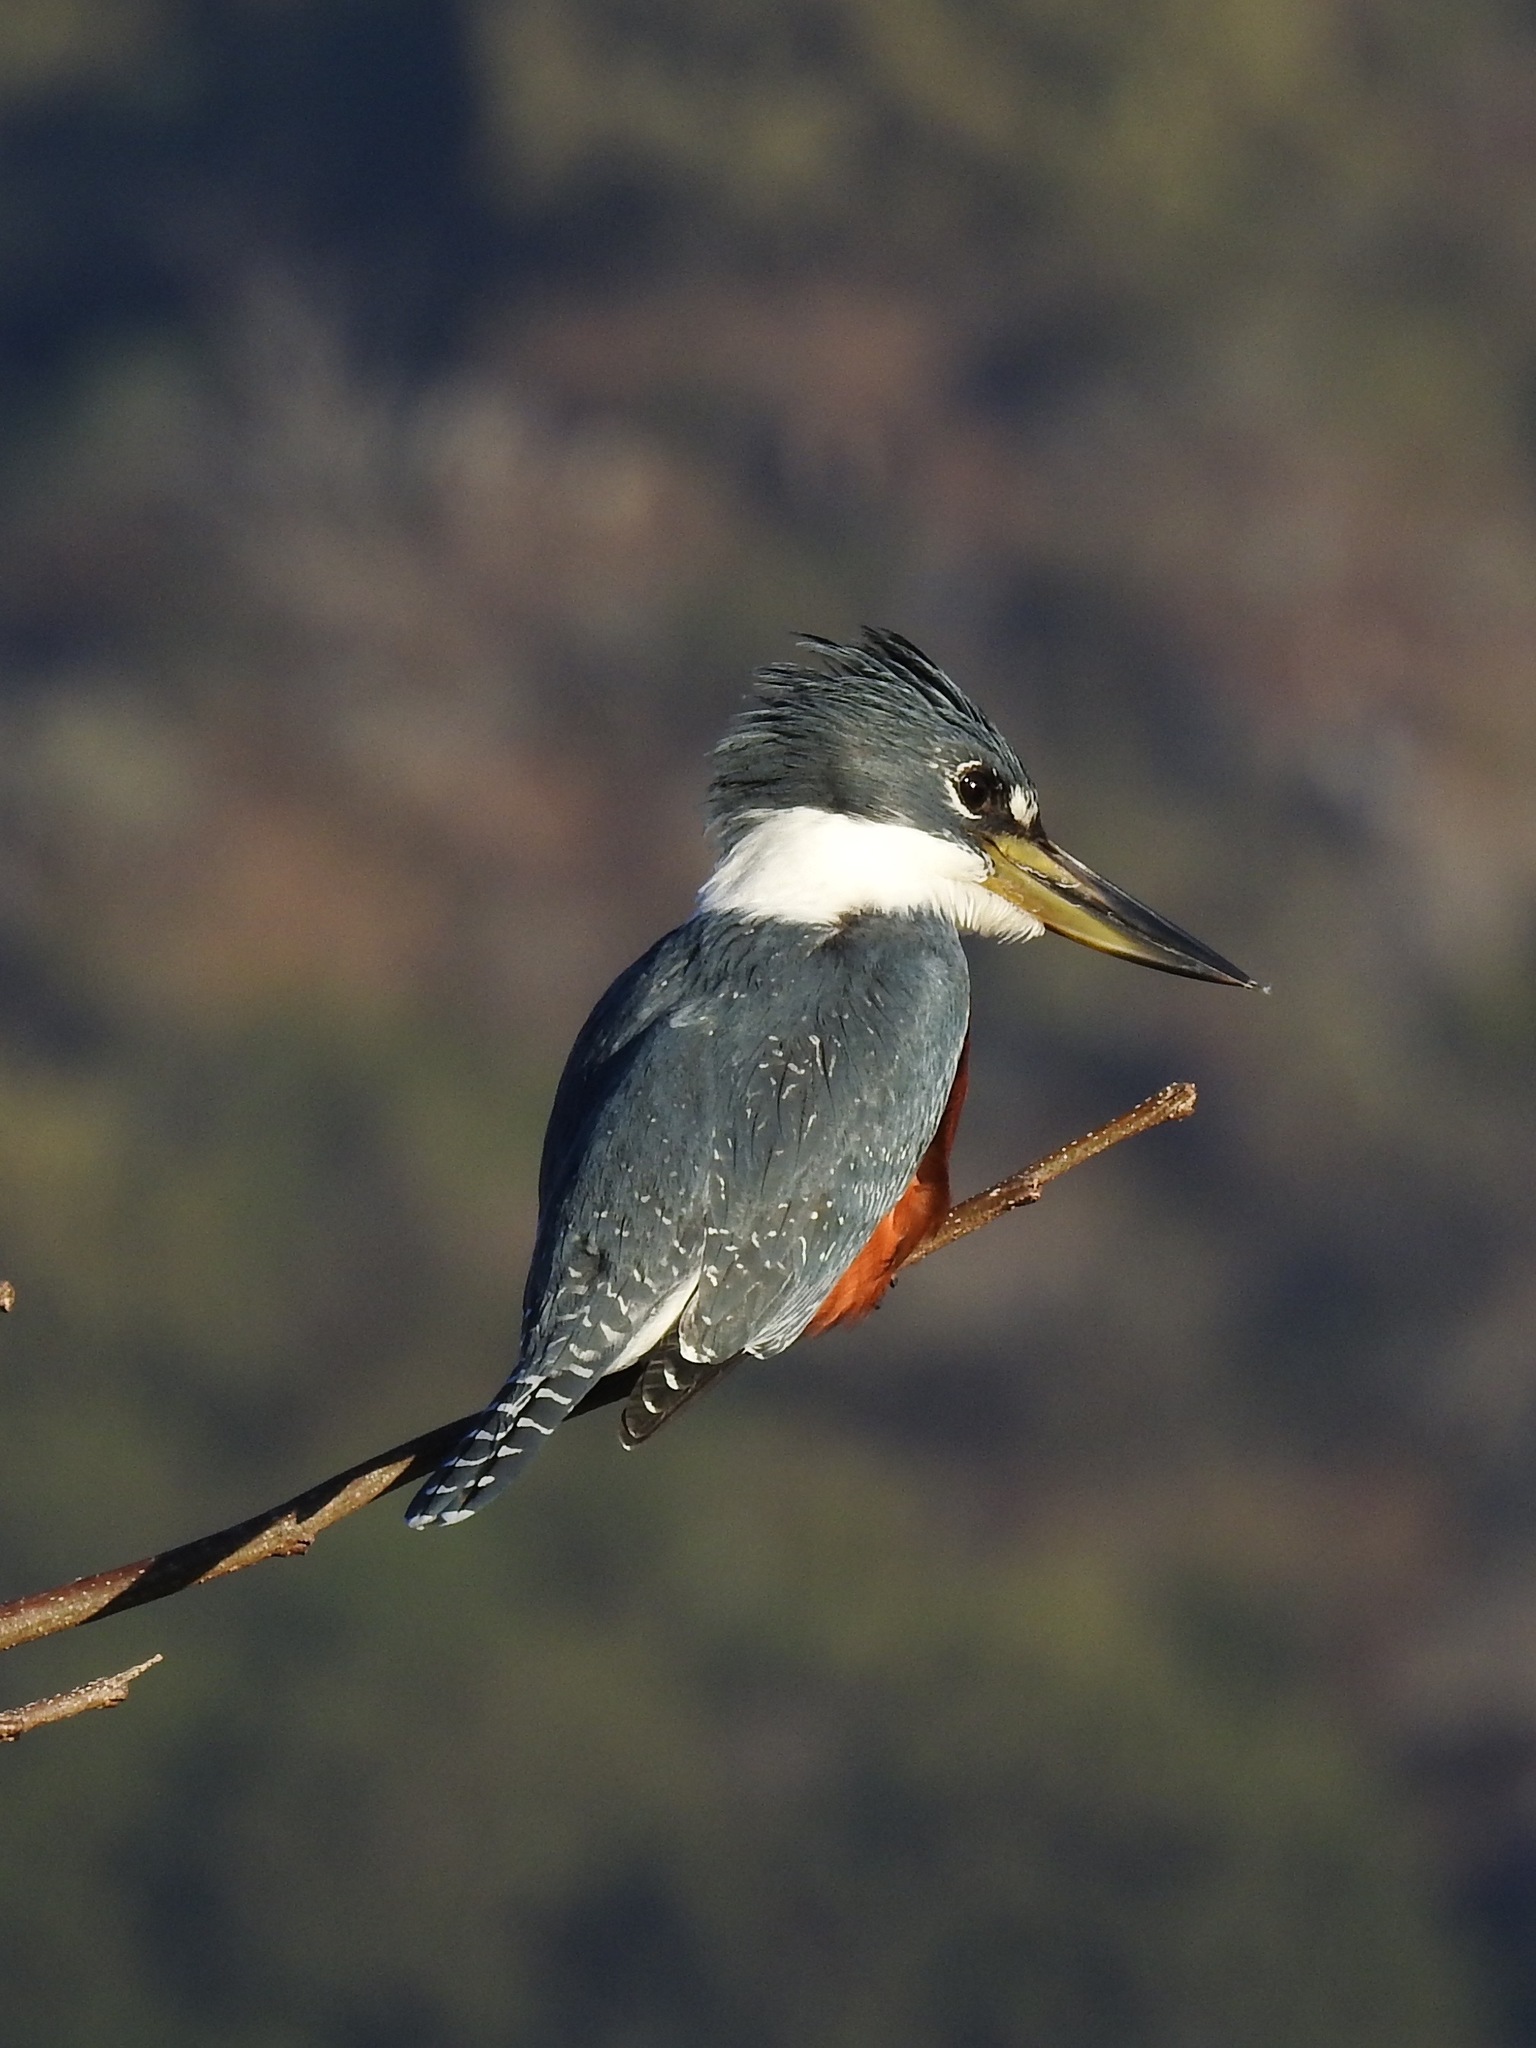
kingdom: Animalia
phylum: Chordata
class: Aves
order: Coraciiformes
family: Alcedinidae
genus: Megaceryle
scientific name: Megaceryle torquata
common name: Ringed kingfisher
